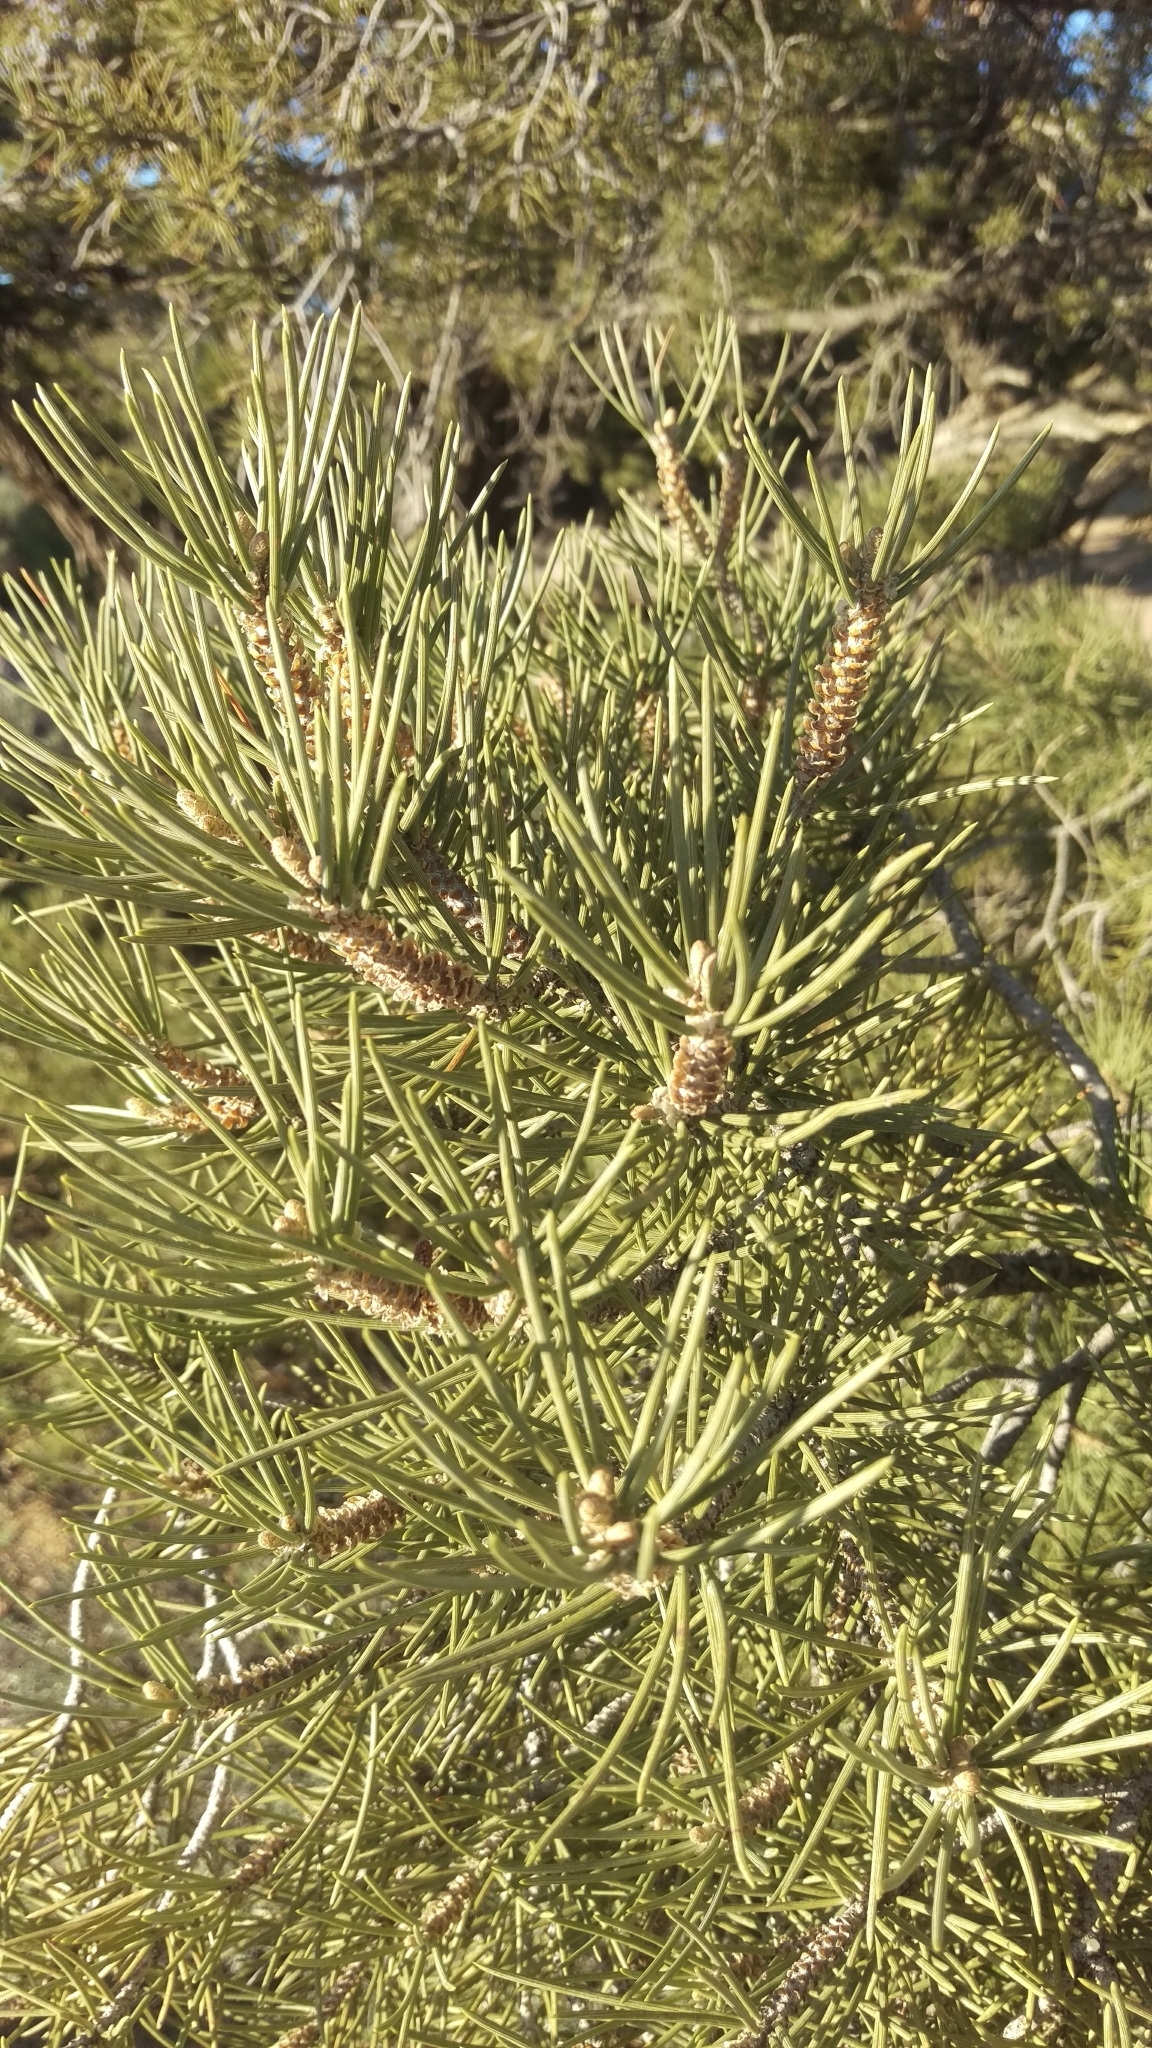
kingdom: Plantae
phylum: Tracheophyta
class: Pinopsida
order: Pinales
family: Pinaceae
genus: Pinus
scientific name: Pinus monophylla
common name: One-leaved nut pine
